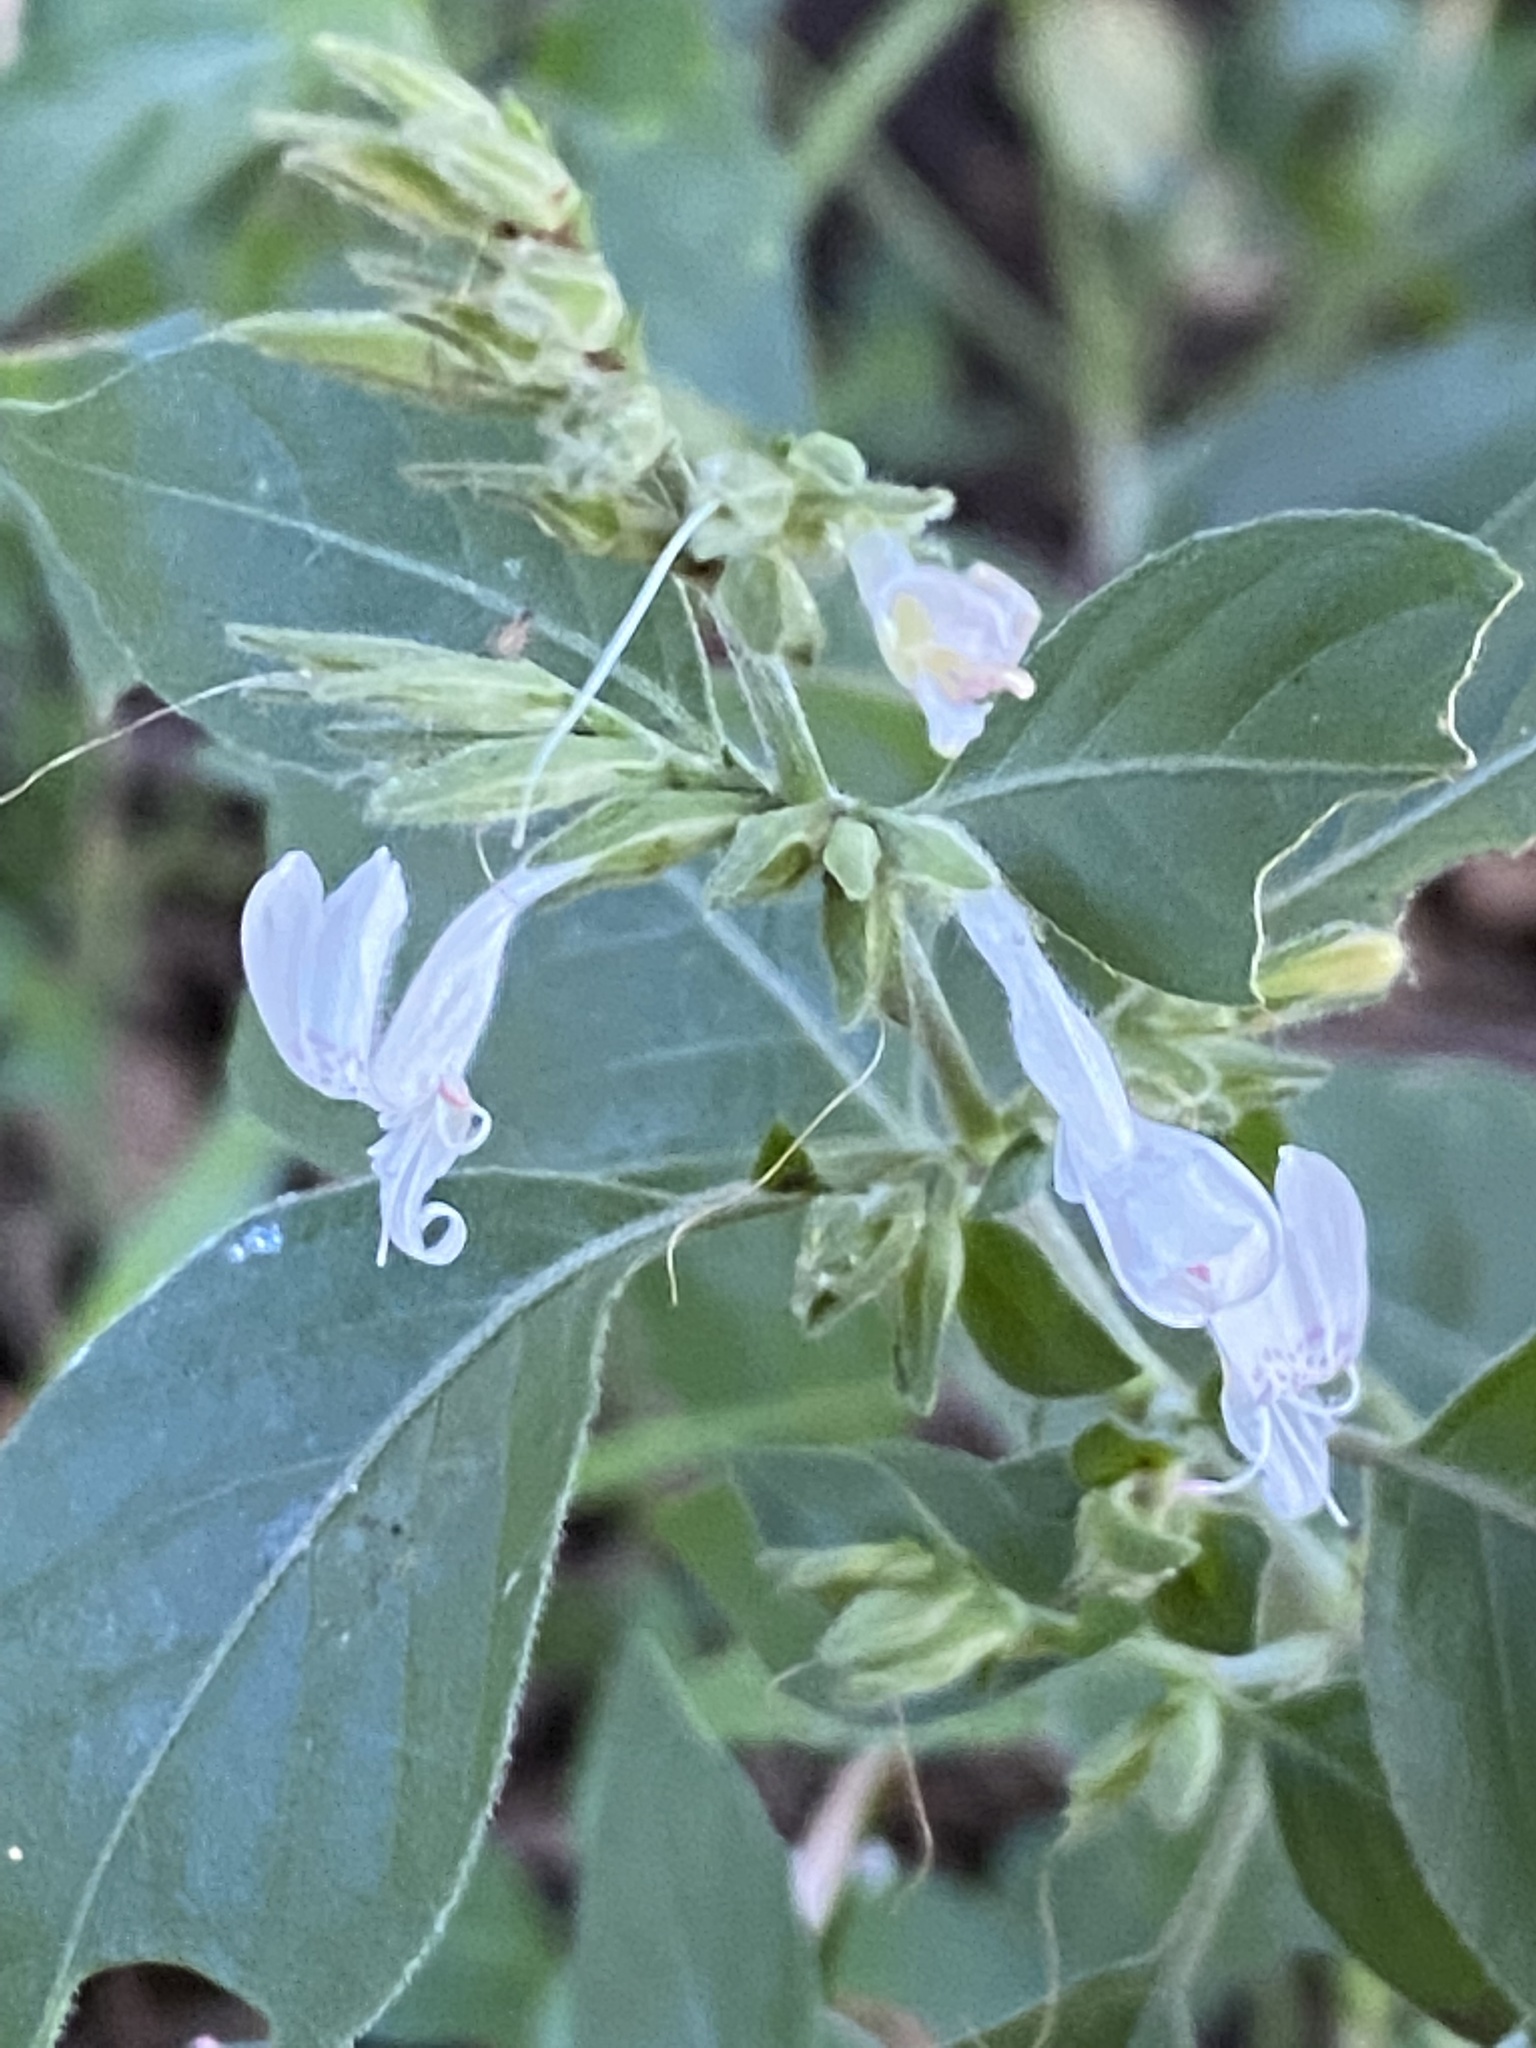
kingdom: Plantae
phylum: Tracheophyta
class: Magnoliopsida
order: Lamiales
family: Acanthaceae
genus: Hypoestes
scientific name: Hypoestes forskaolii
